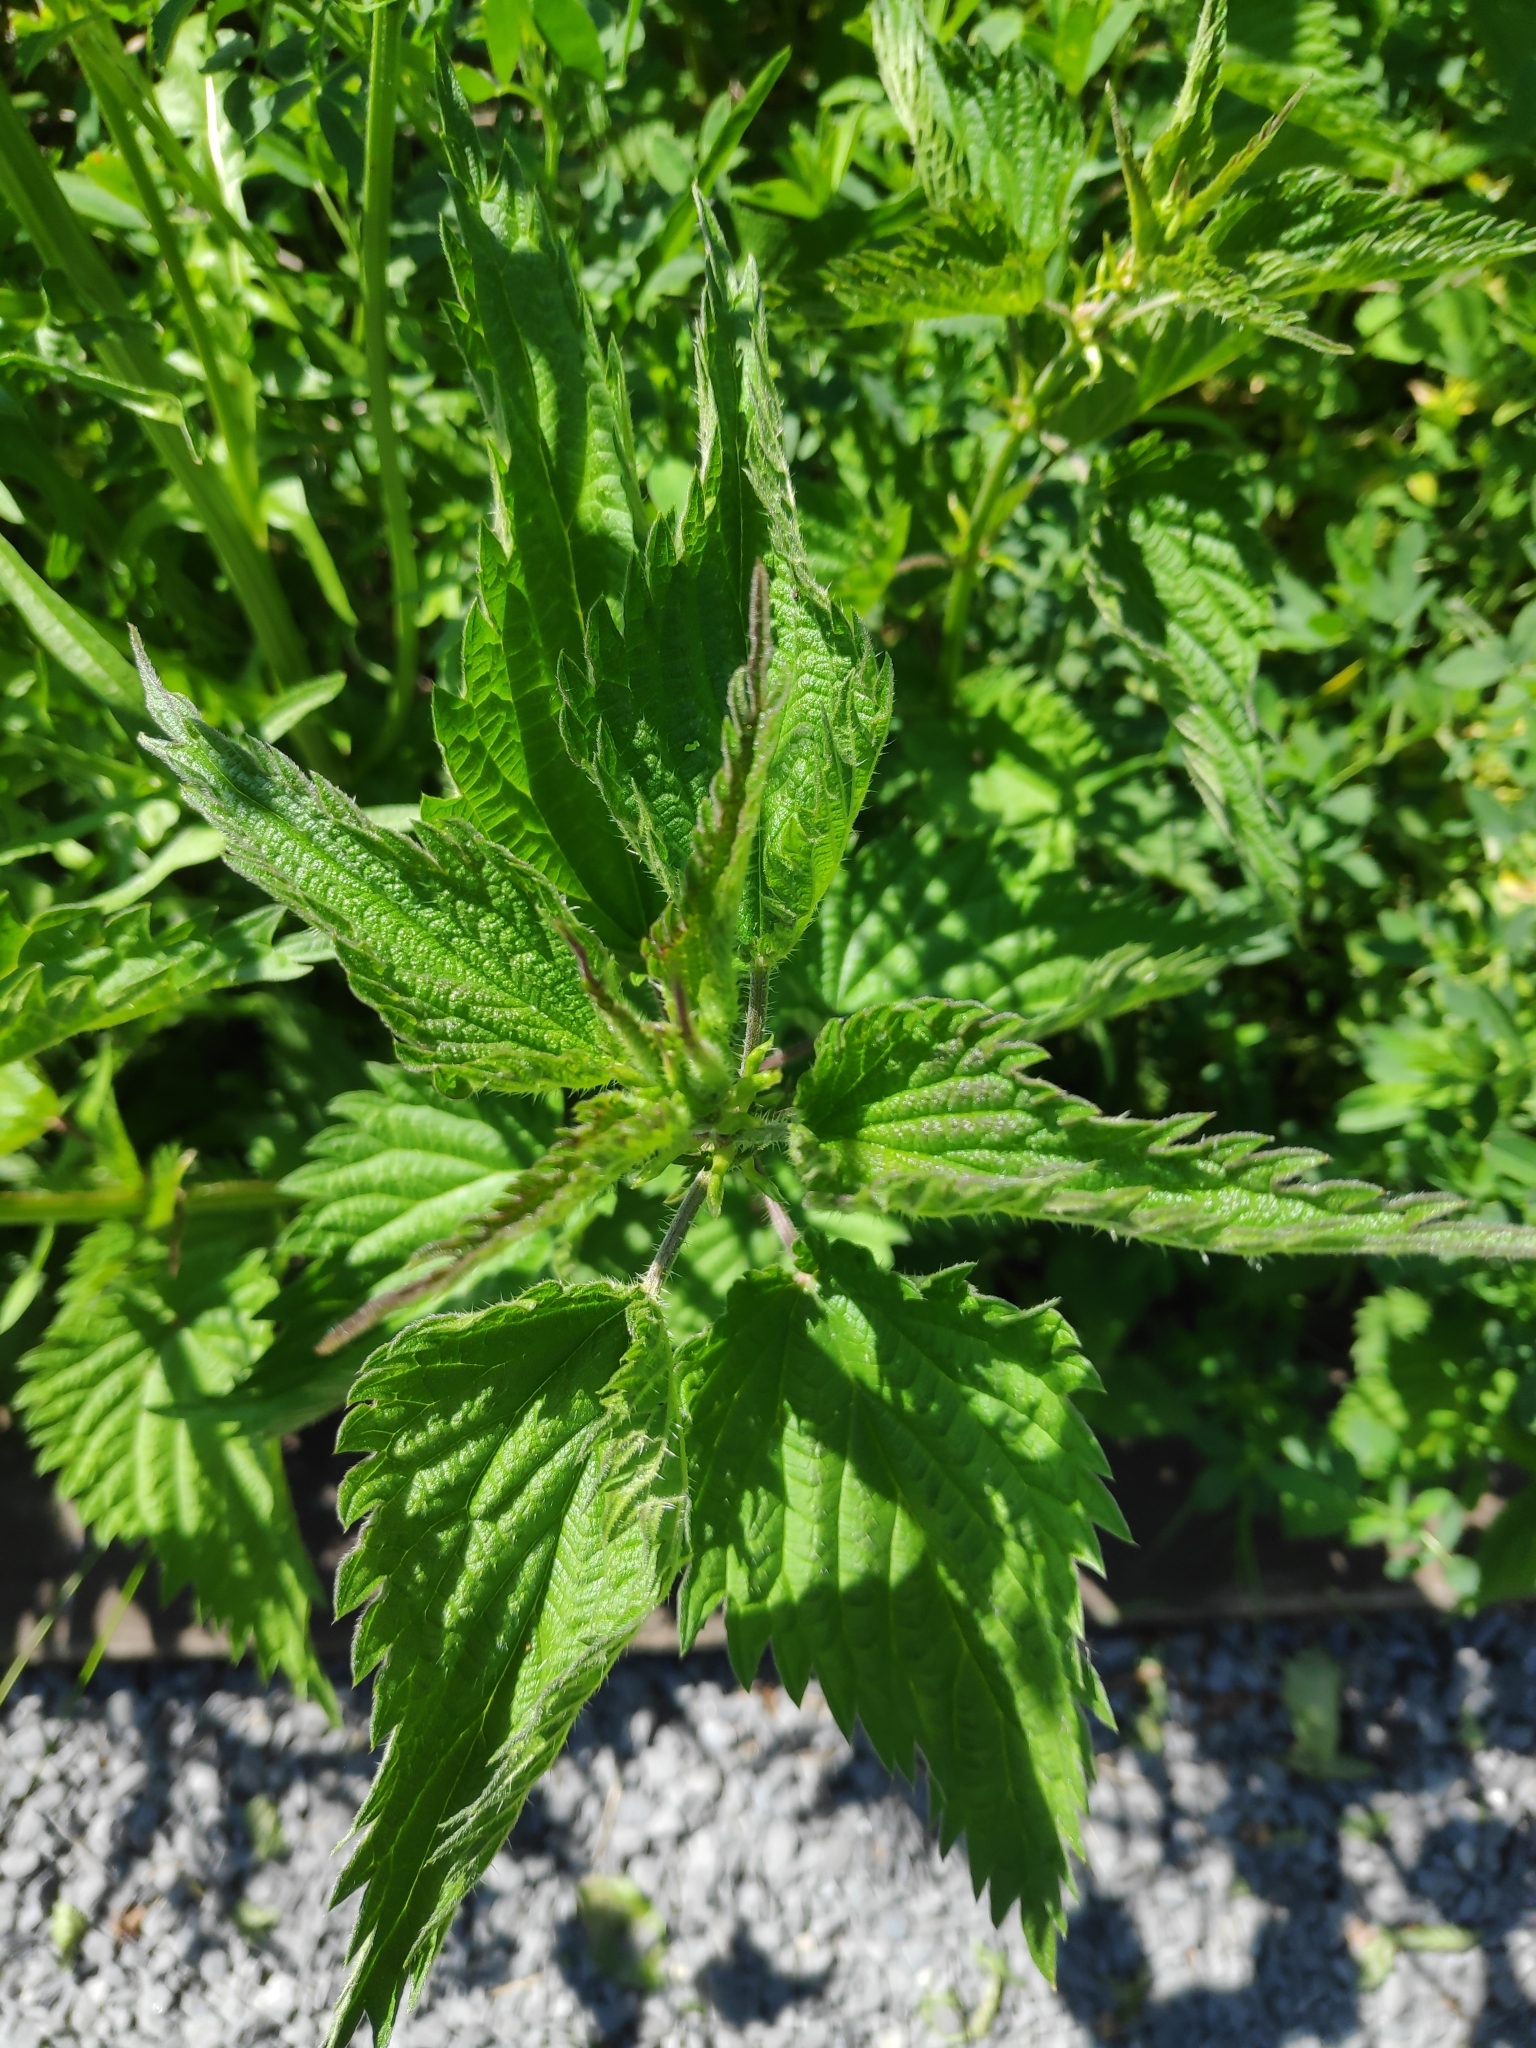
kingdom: Plantae
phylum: Tracheophyta
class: Magnoliopsida
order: Rosales
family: Urticaceae
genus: Urtica
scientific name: Urtica dioica
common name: Common nettle
